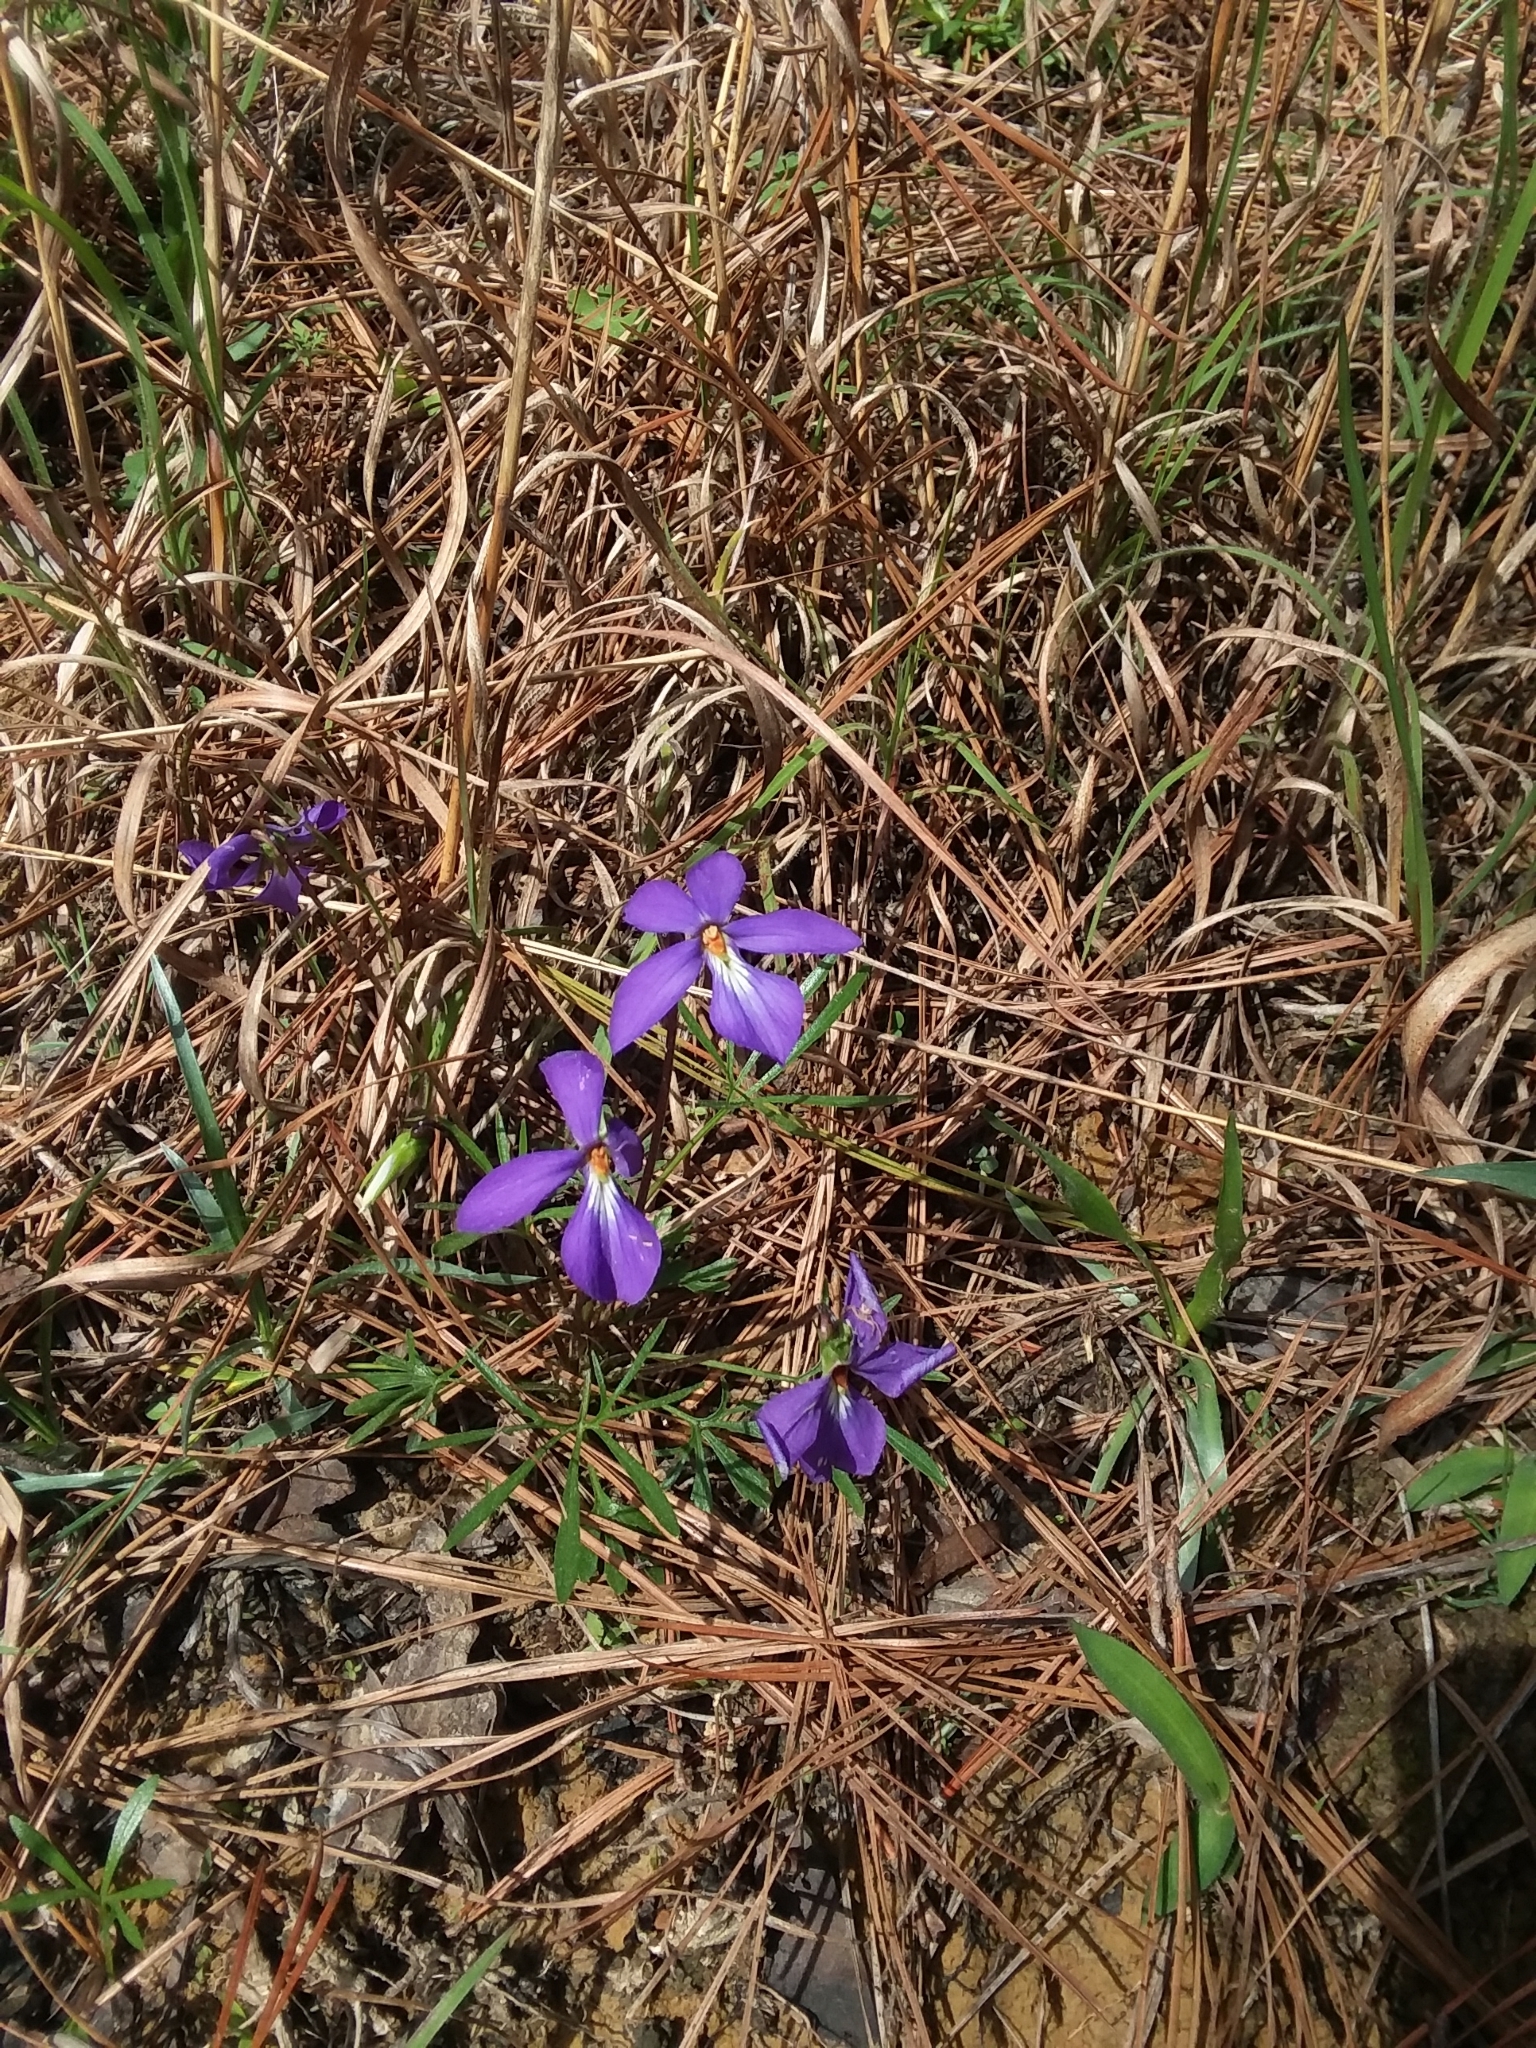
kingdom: Plantae
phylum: Tracheophyta
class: Magnoliopsida
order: Malpighiales
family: Violaceae
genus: Viola
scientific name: Viola pedata
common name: Pansy violet
